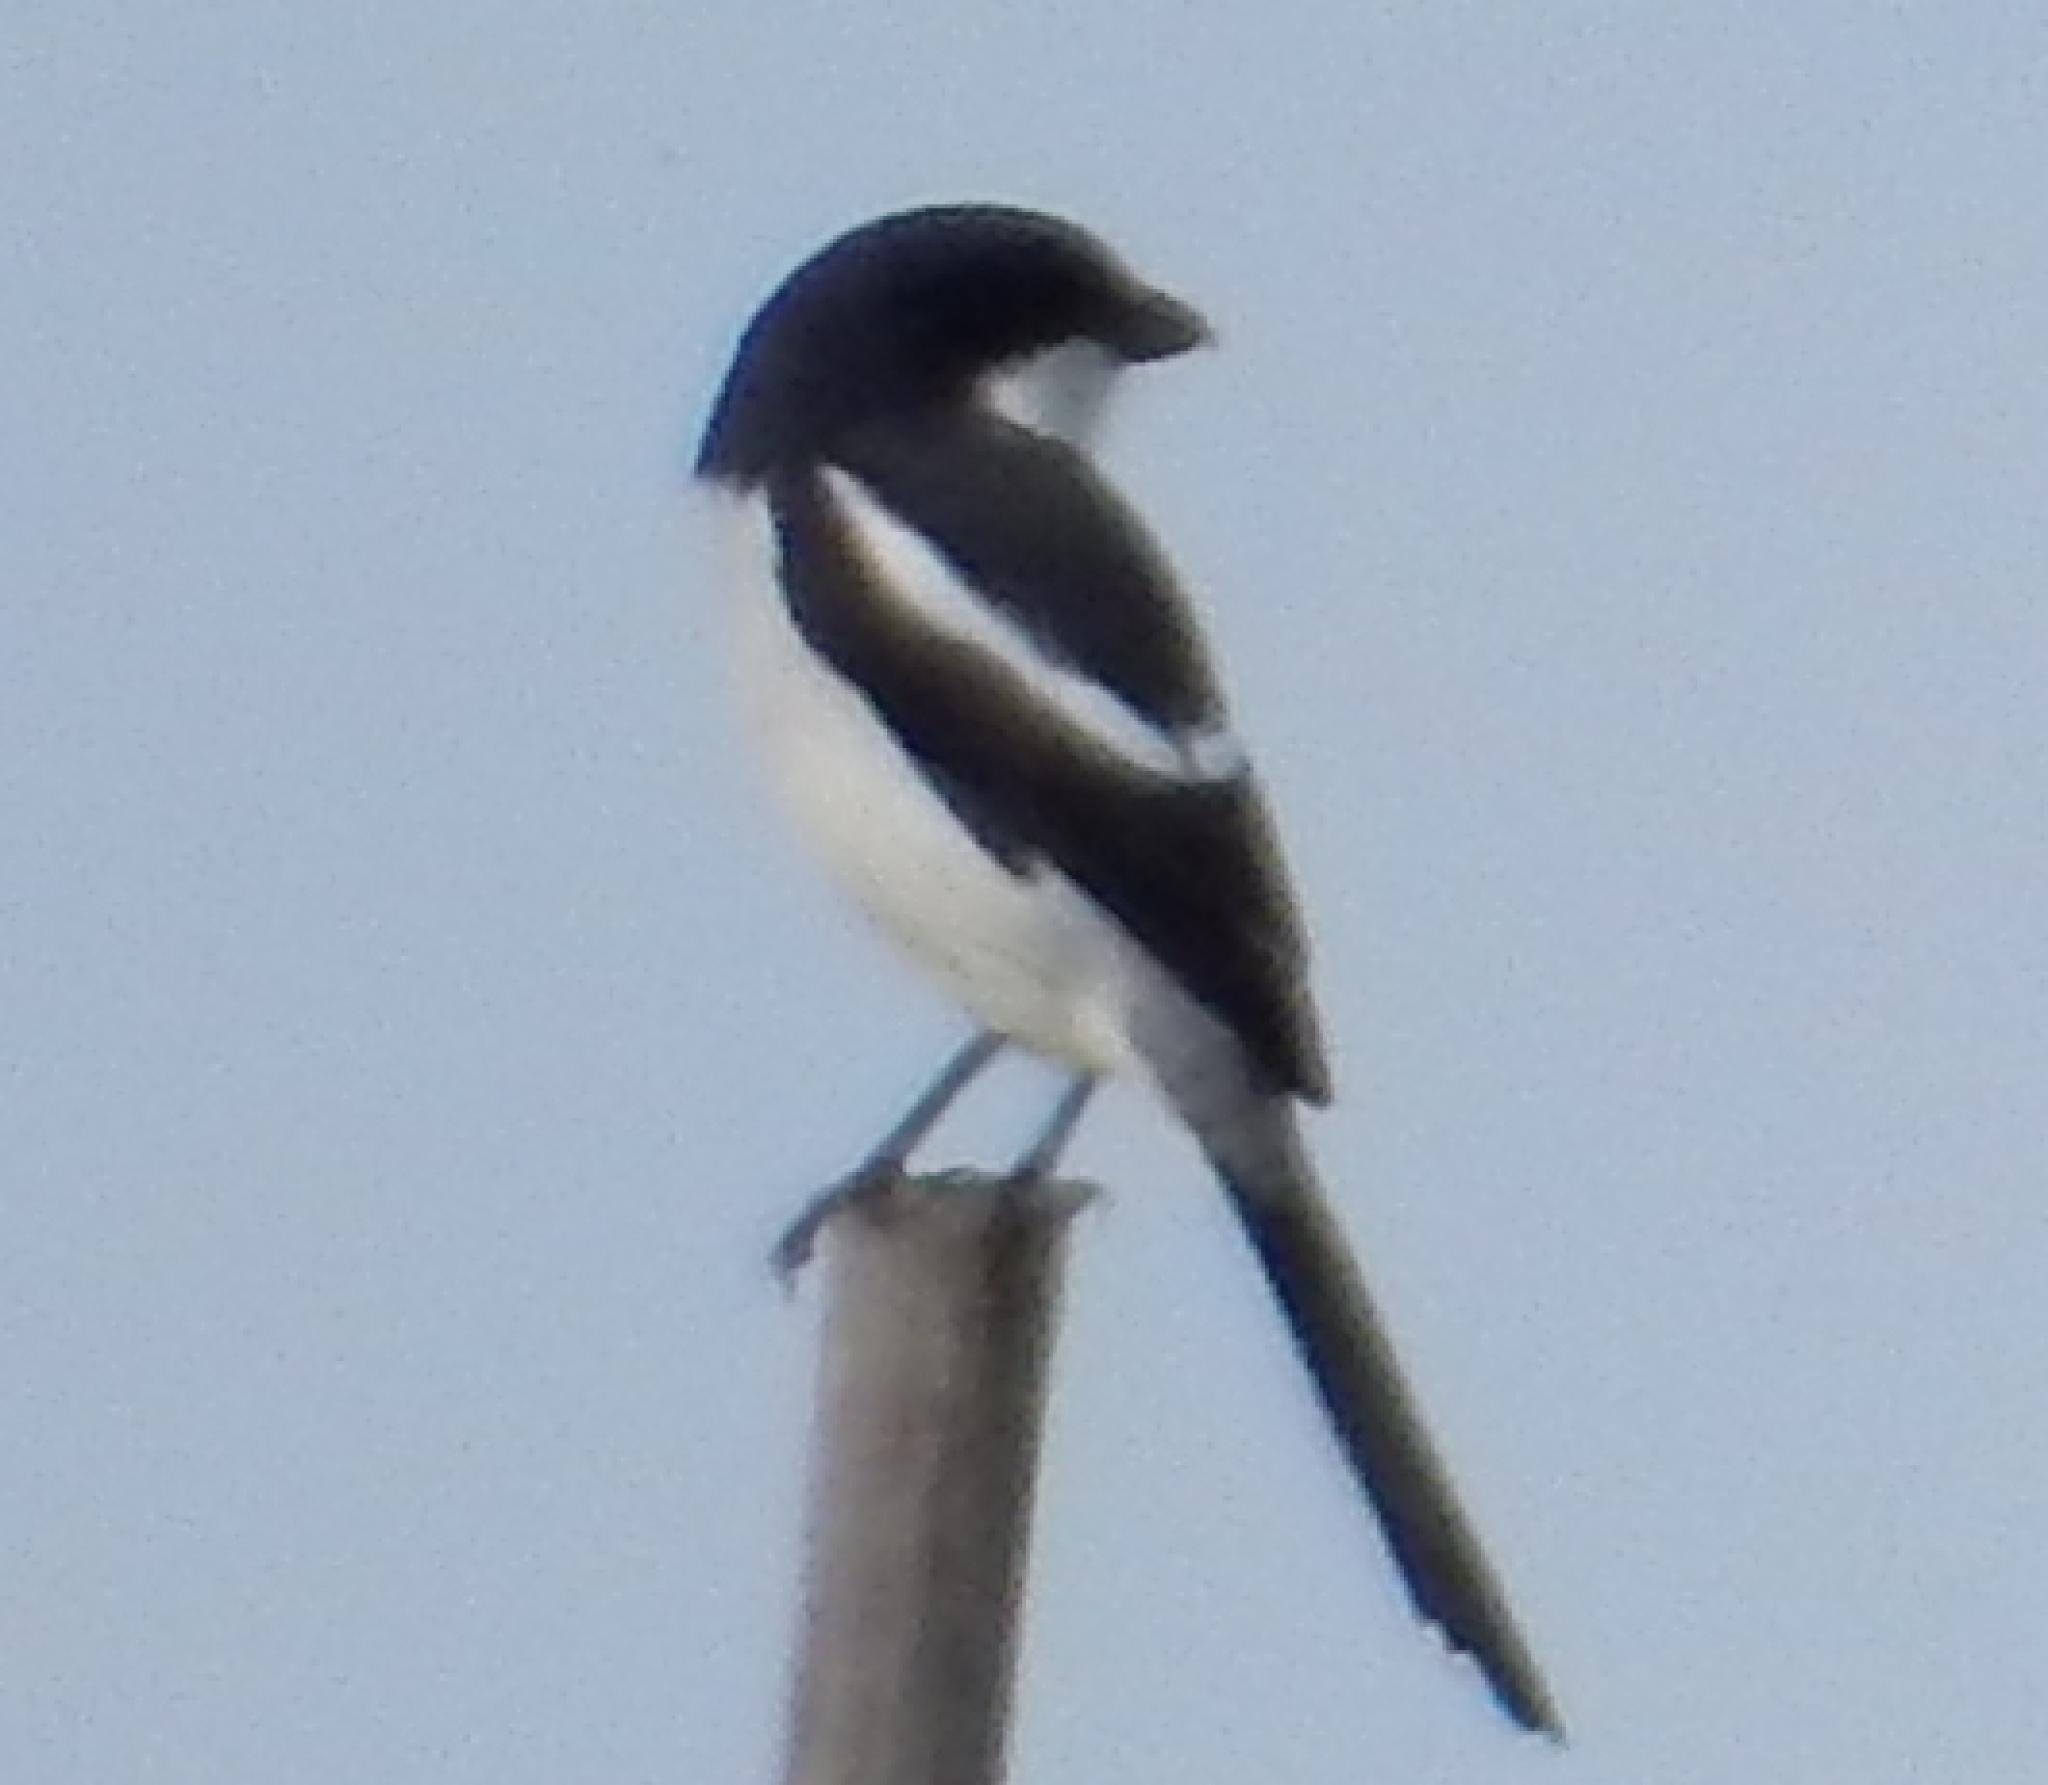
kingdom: Animalia
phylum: Chordata
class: Aves
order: Passeriformes
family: Laniidae
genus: Lanius
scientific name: Lanius collaris
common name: Southern fiscal
